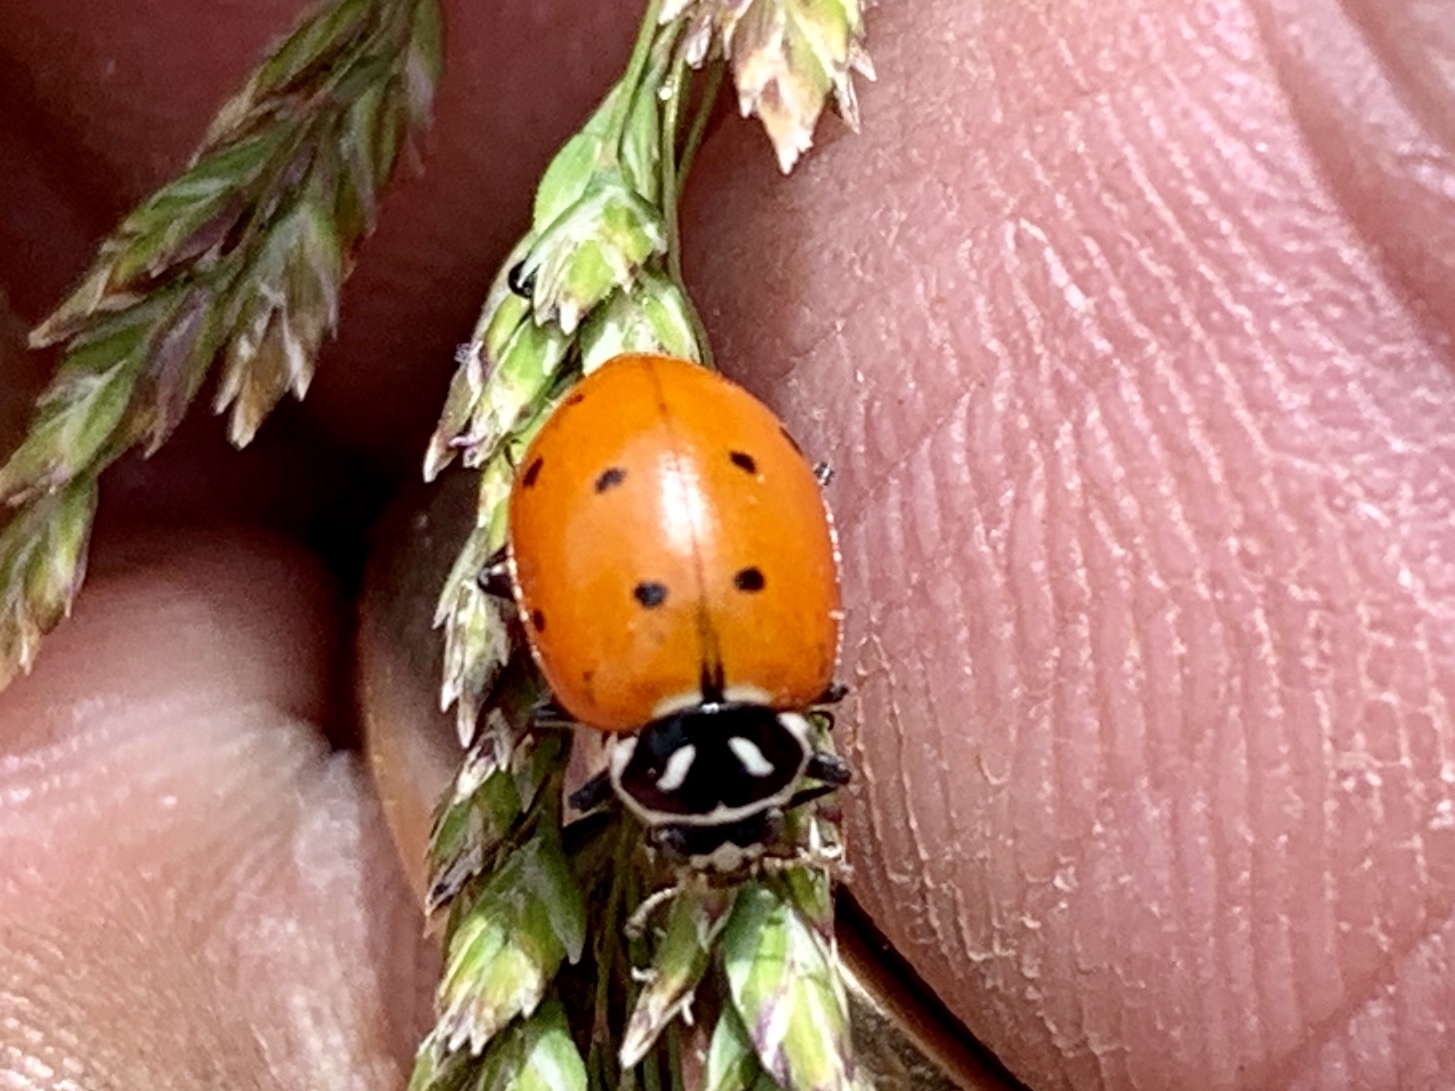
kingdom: Animalia
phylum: Arthropoda
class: Insecta
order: Coleoptera
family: Coccinellidae
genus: Hippodamia
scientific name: Hippodamia convergens
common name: Convergent lady beetle
